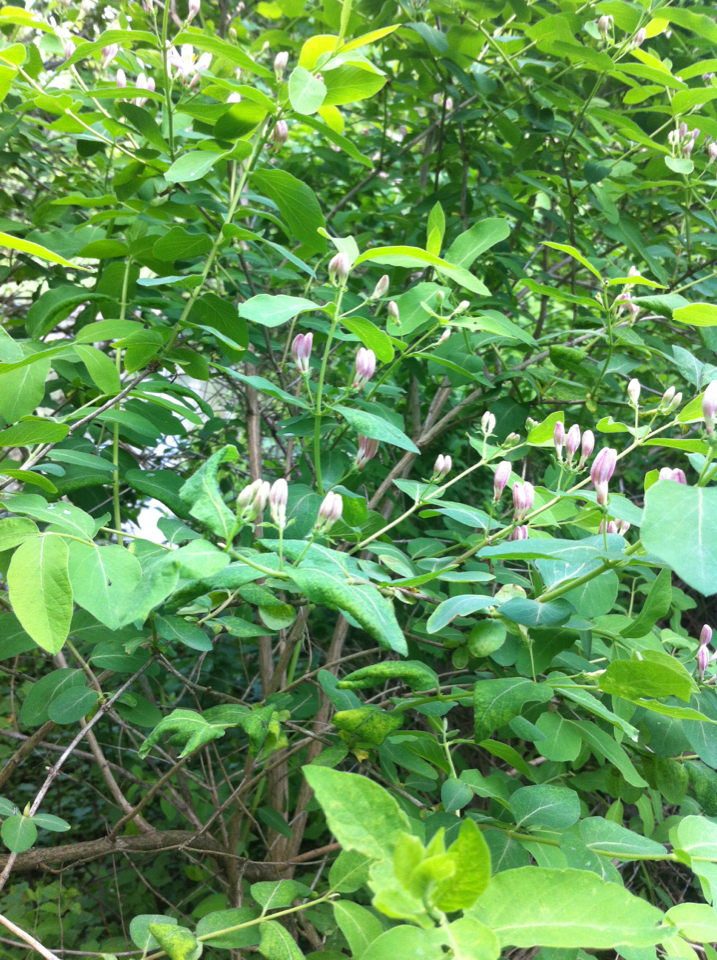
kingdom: Plantae
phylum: Tracheophyta
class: Magnoliopsida
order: Dipsacales
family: Caprifoliaceae
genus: Lonicera
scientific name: Lonicera tatarica
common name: Tatarian honeysuckle
